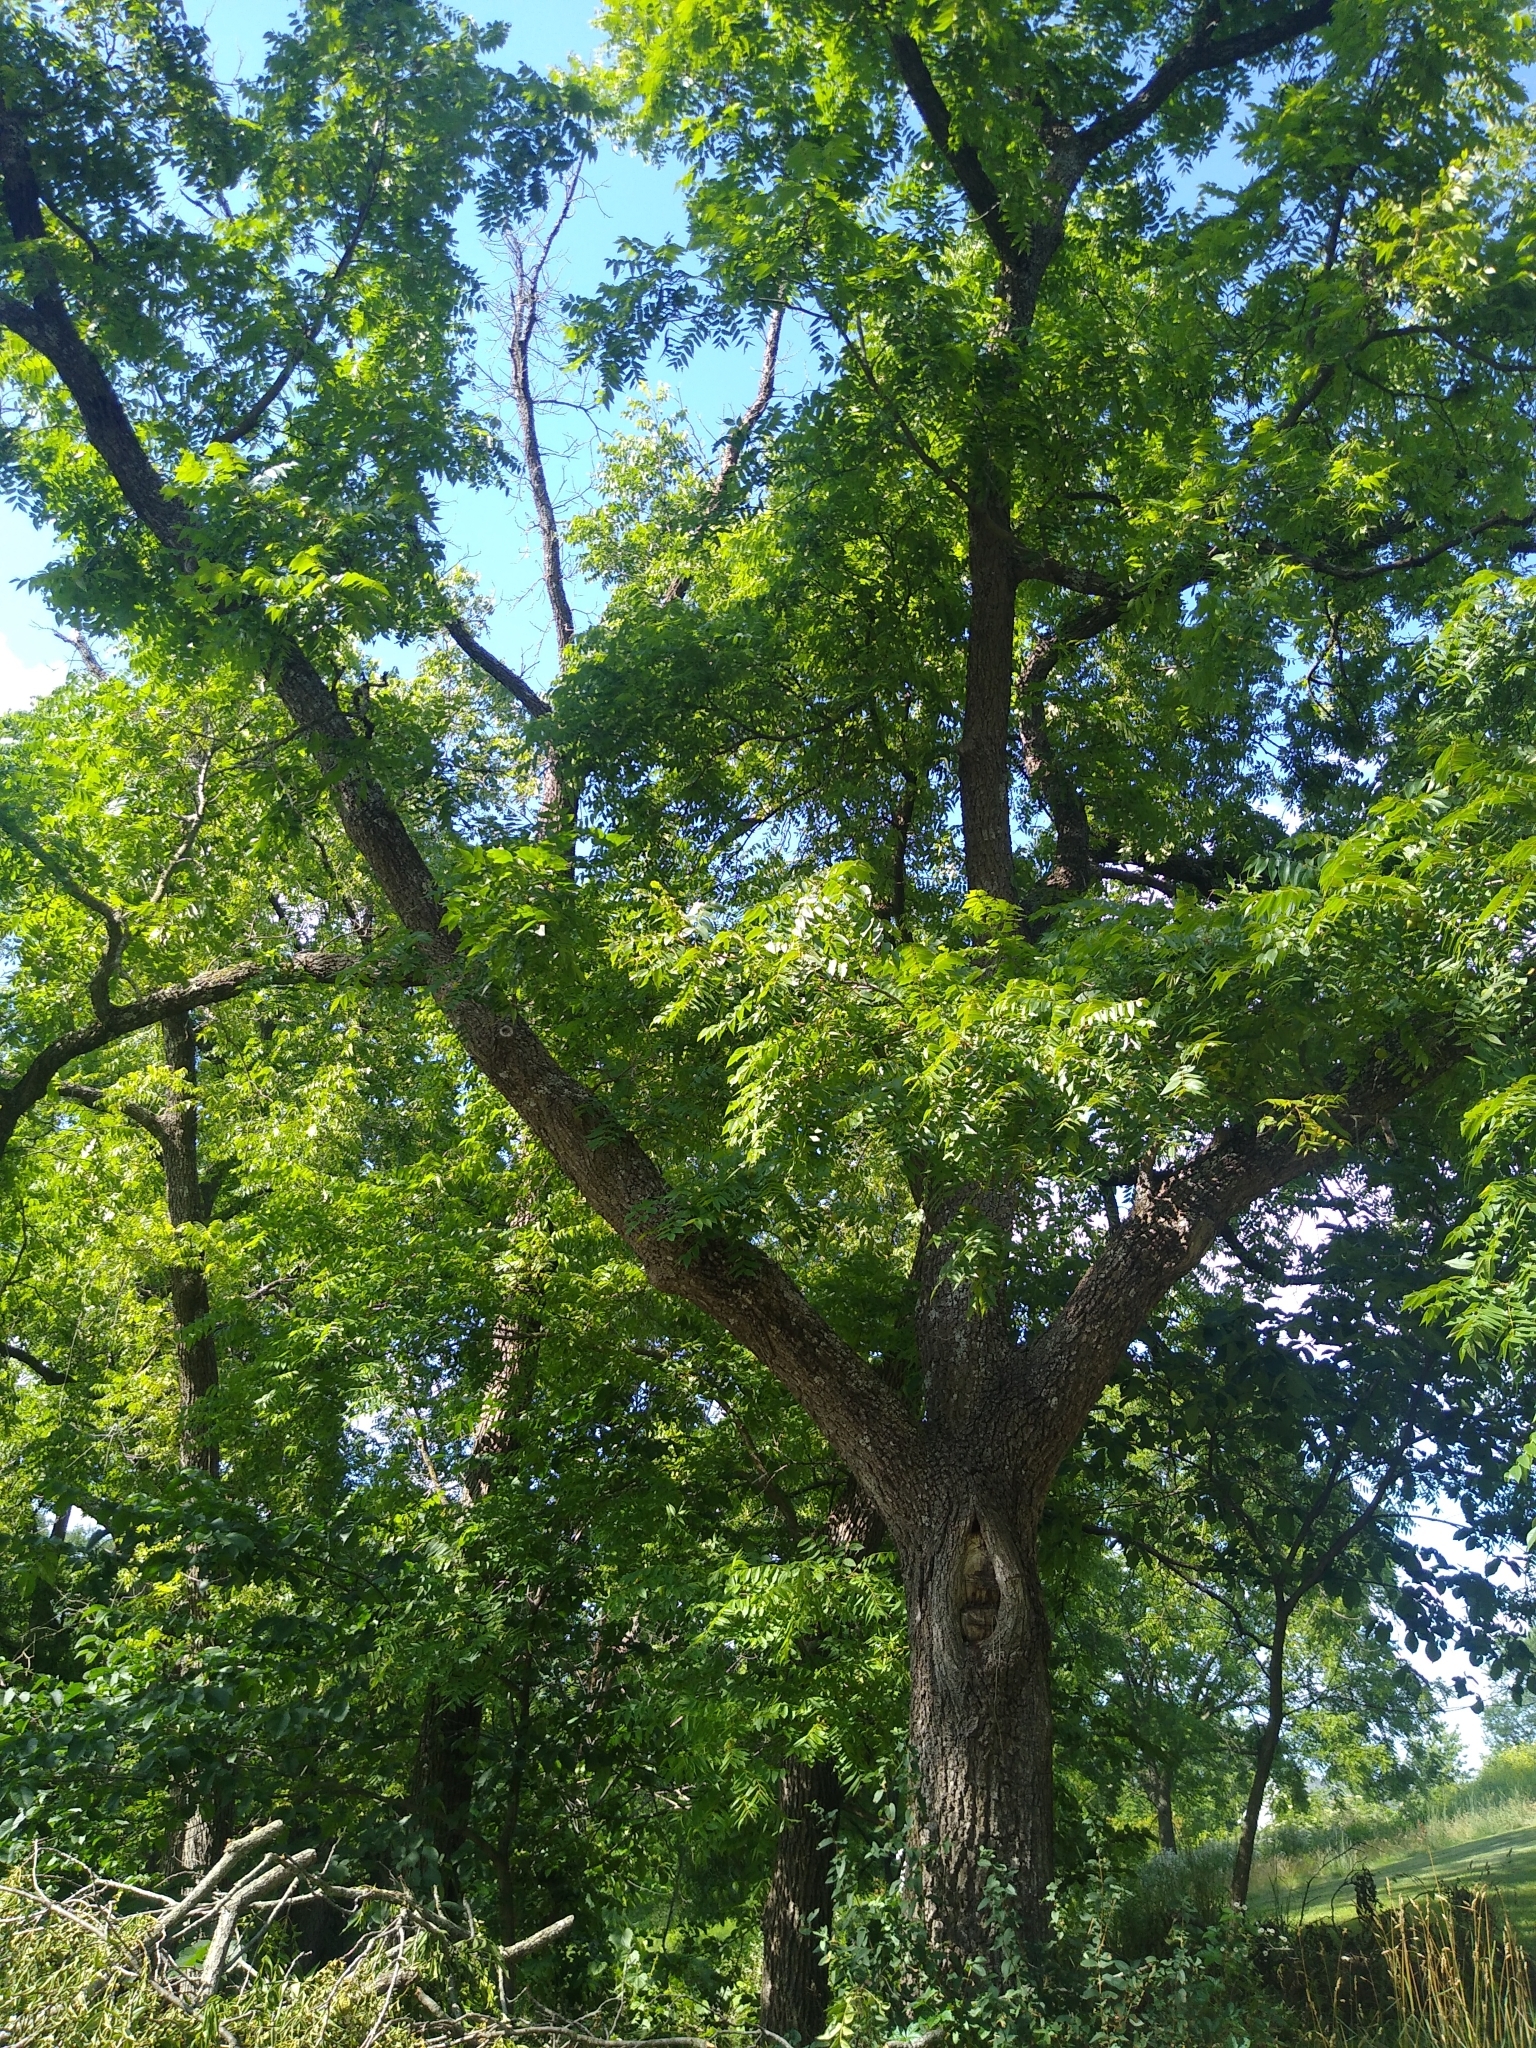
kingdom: Plantae
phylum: Tracheophyta
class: Magnoliopsida
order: Fagales
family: Juglandaceae
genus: Juglans
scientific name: Juglans nigra
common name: Black walnut
